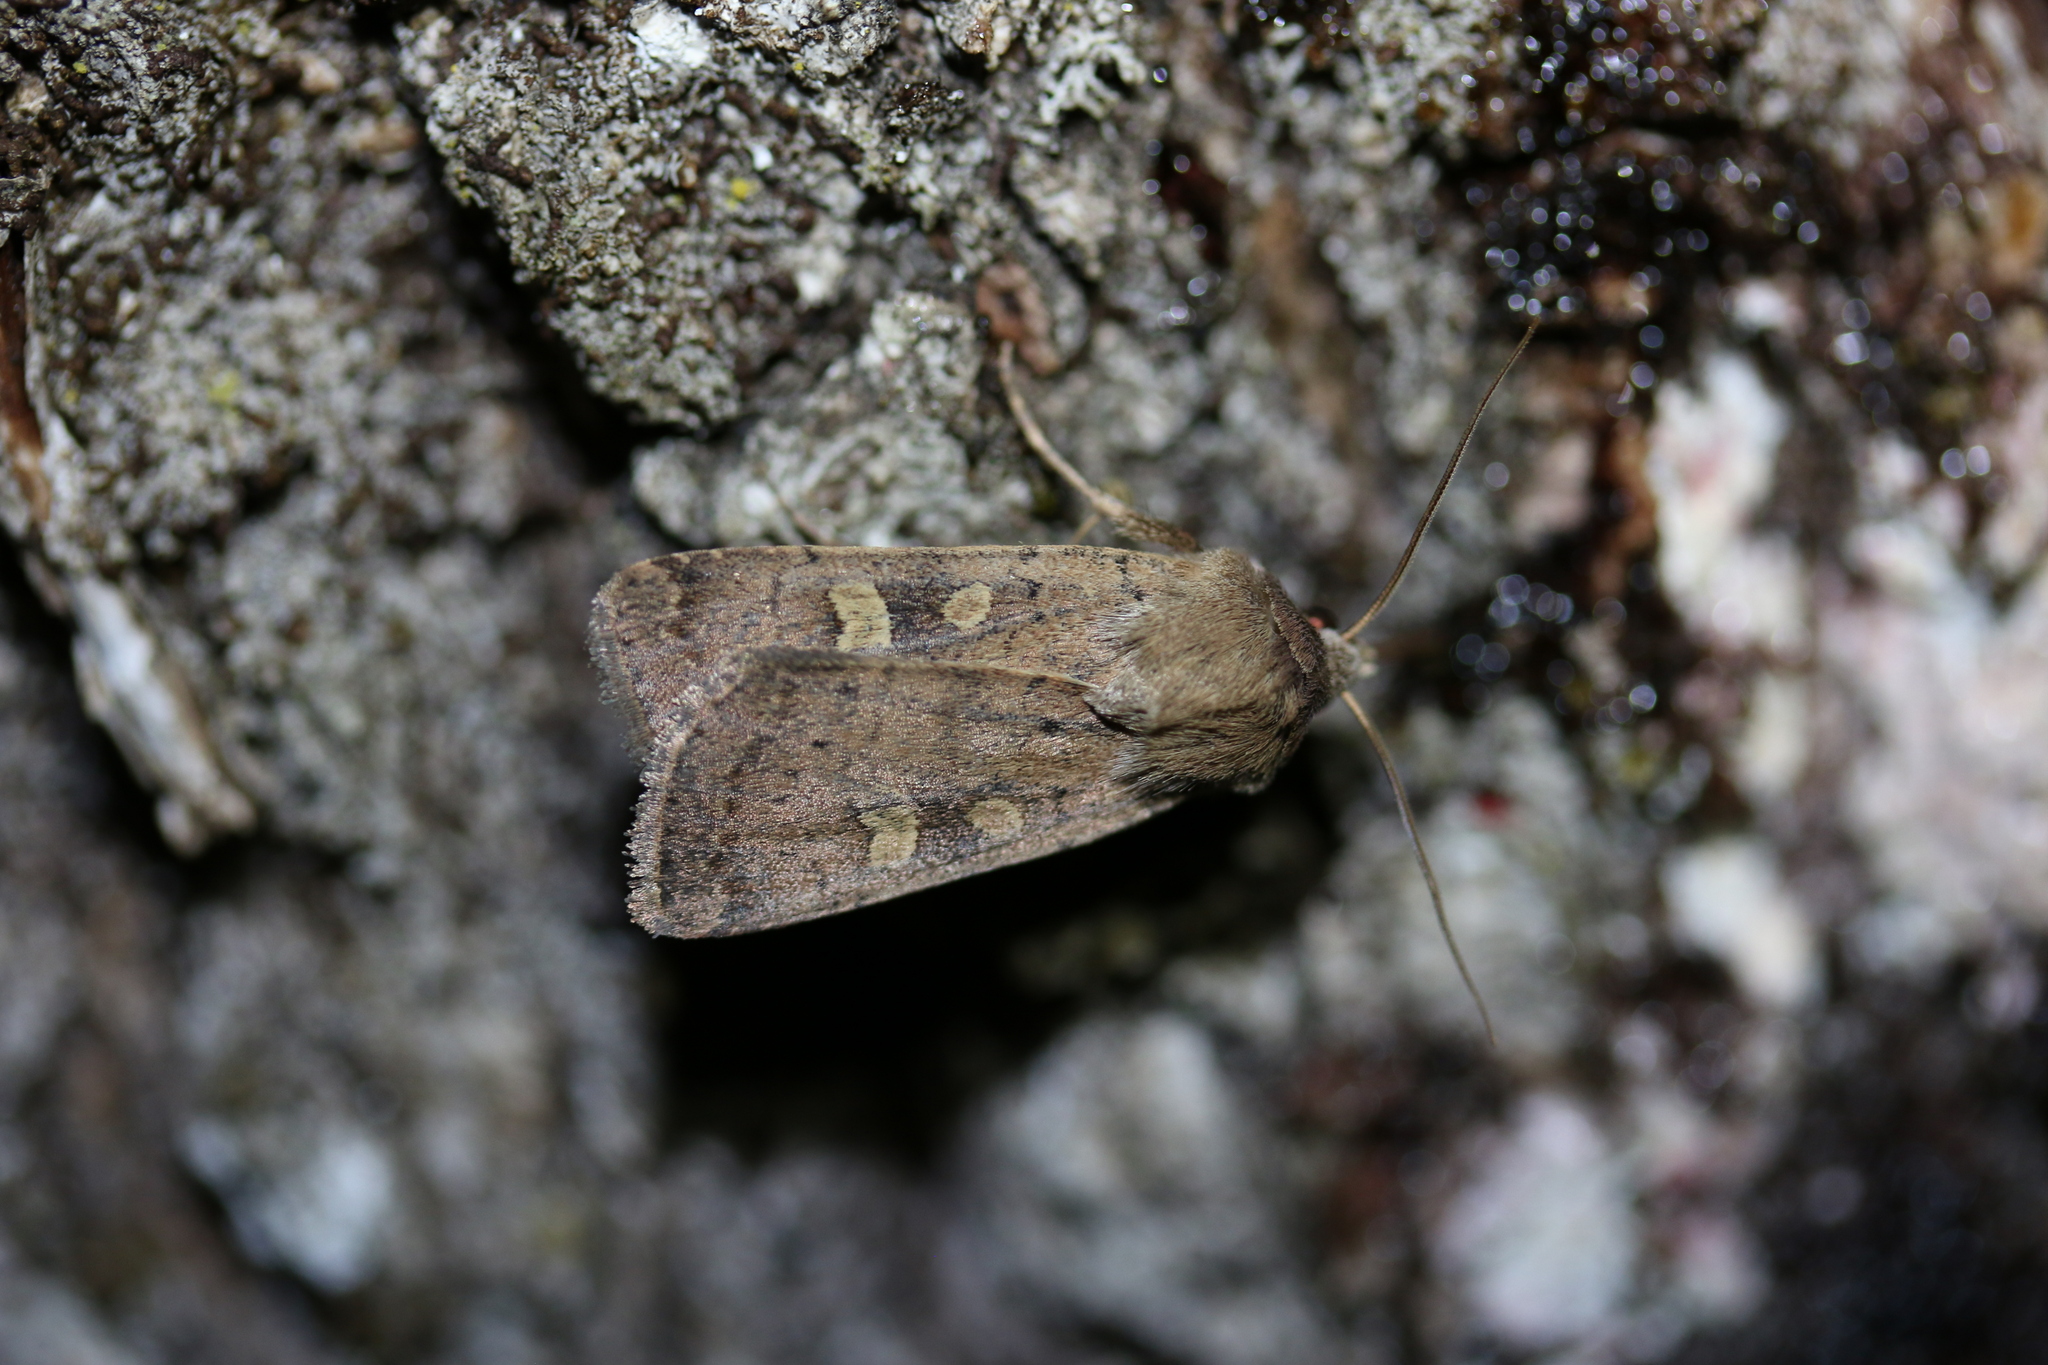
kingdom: Animalia
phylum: Arthropoda
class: Insecta
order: Lepidoptera
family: Noctuidae
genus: Xestia
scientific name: Xestia xanthographa
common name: Square-spot rustic
